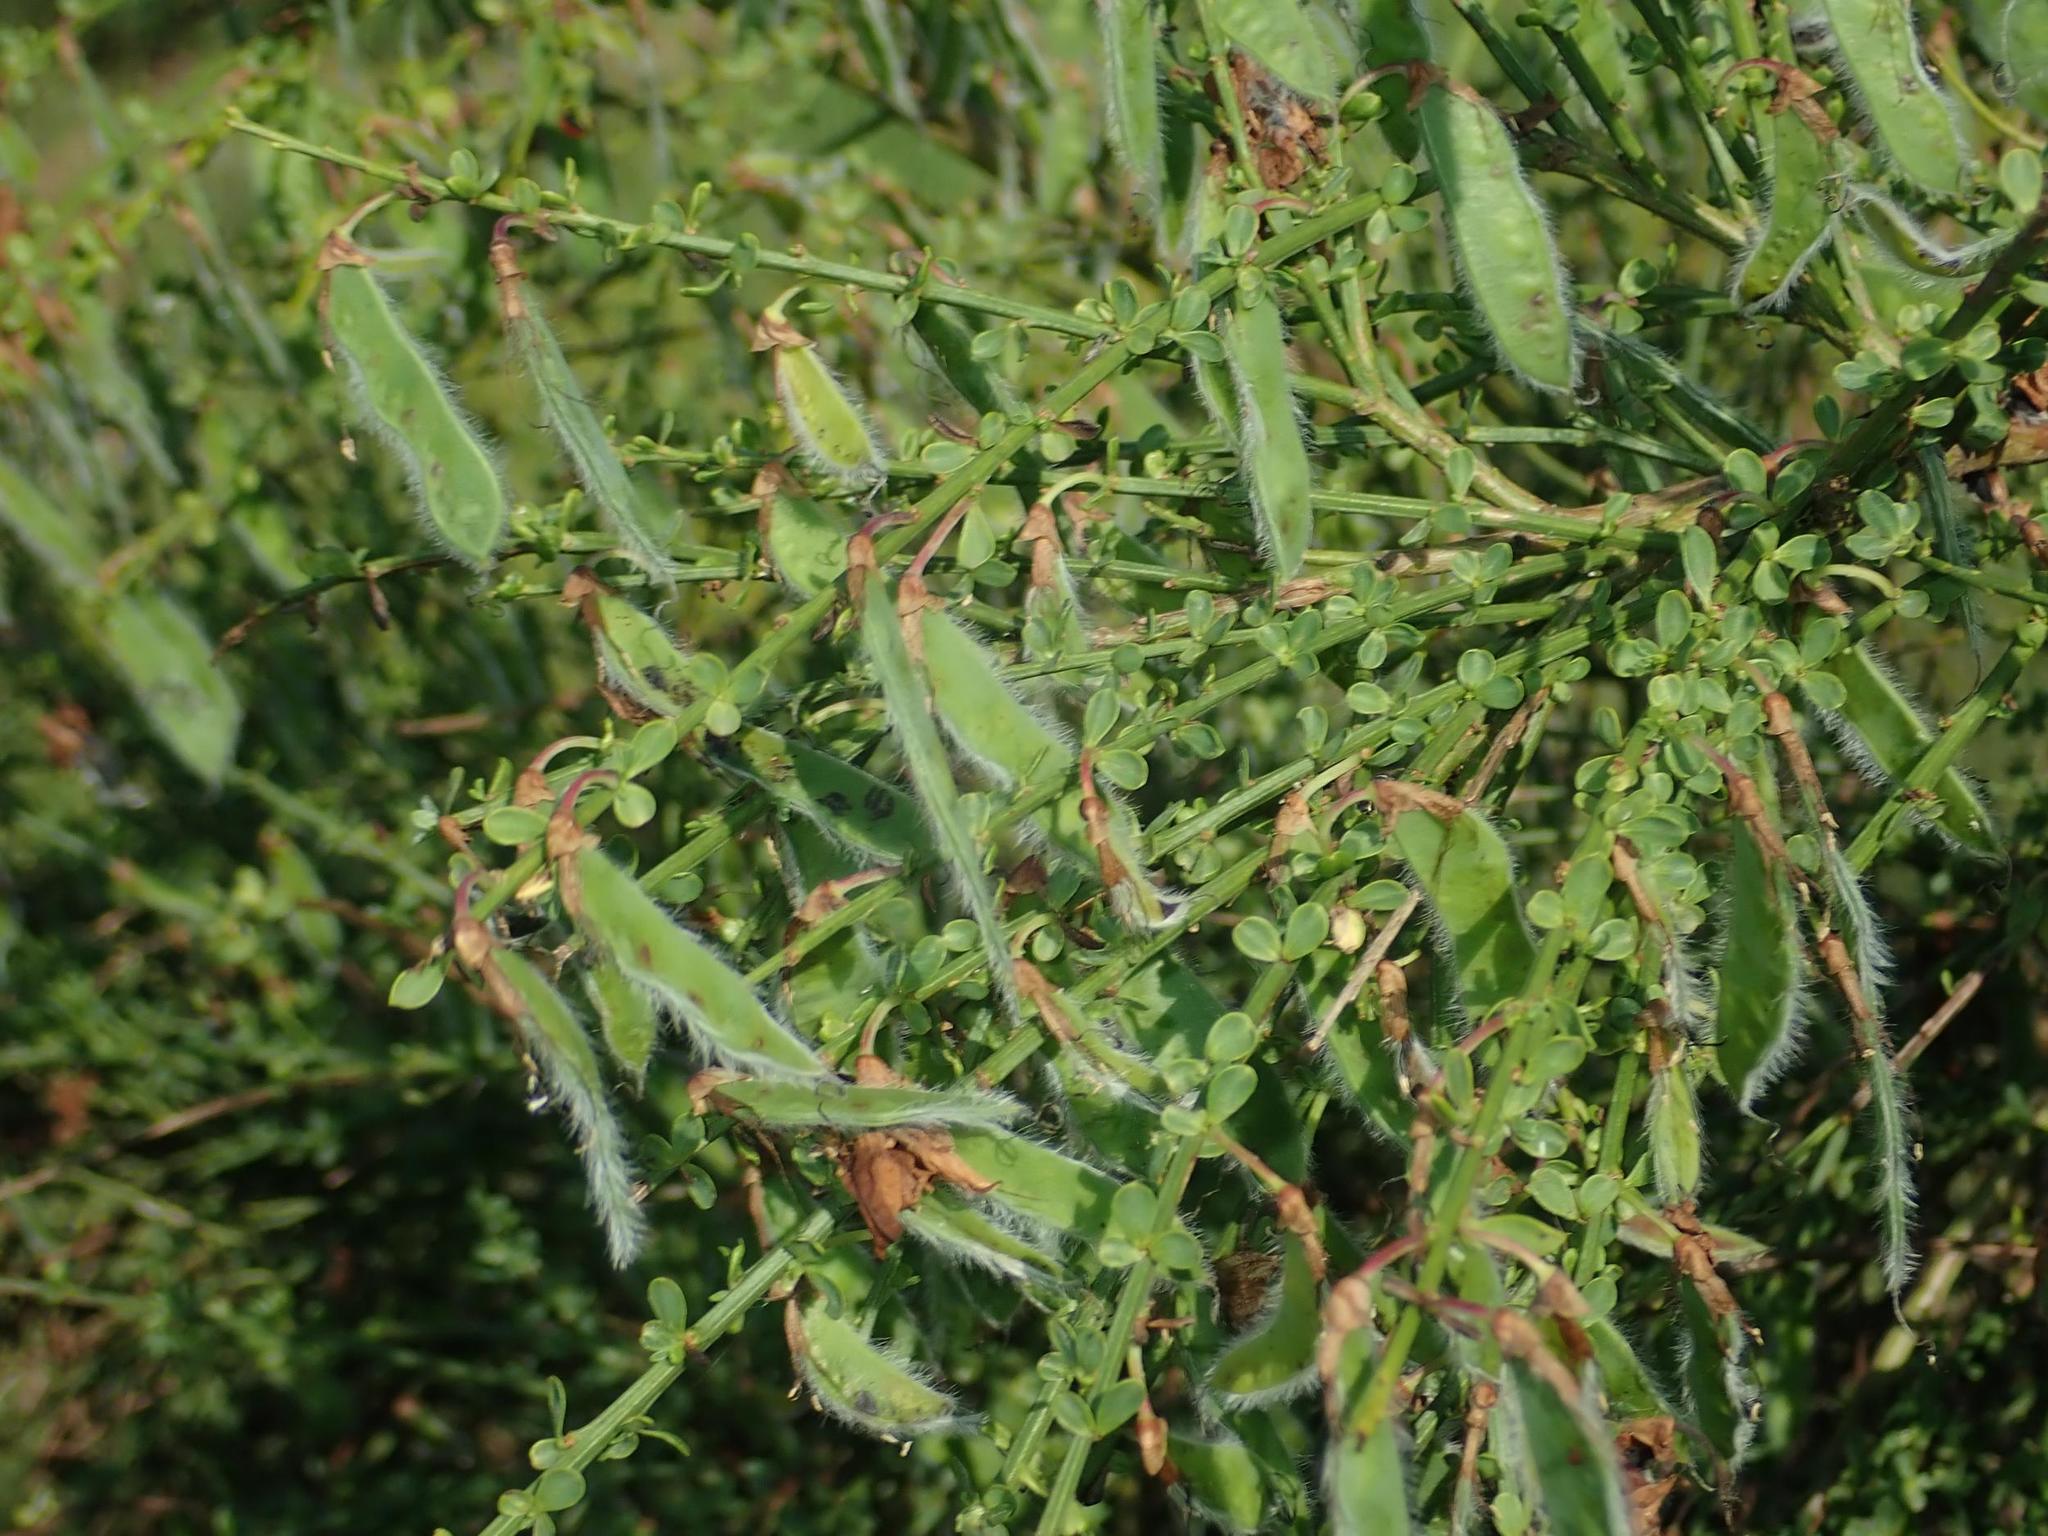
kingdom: Plantae
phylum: Tracheophyta
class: Magnoliopsida
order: Fabales
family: Fabaceae
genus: Cytisus
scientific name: Cytisus scoparius
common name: Scotch broom
